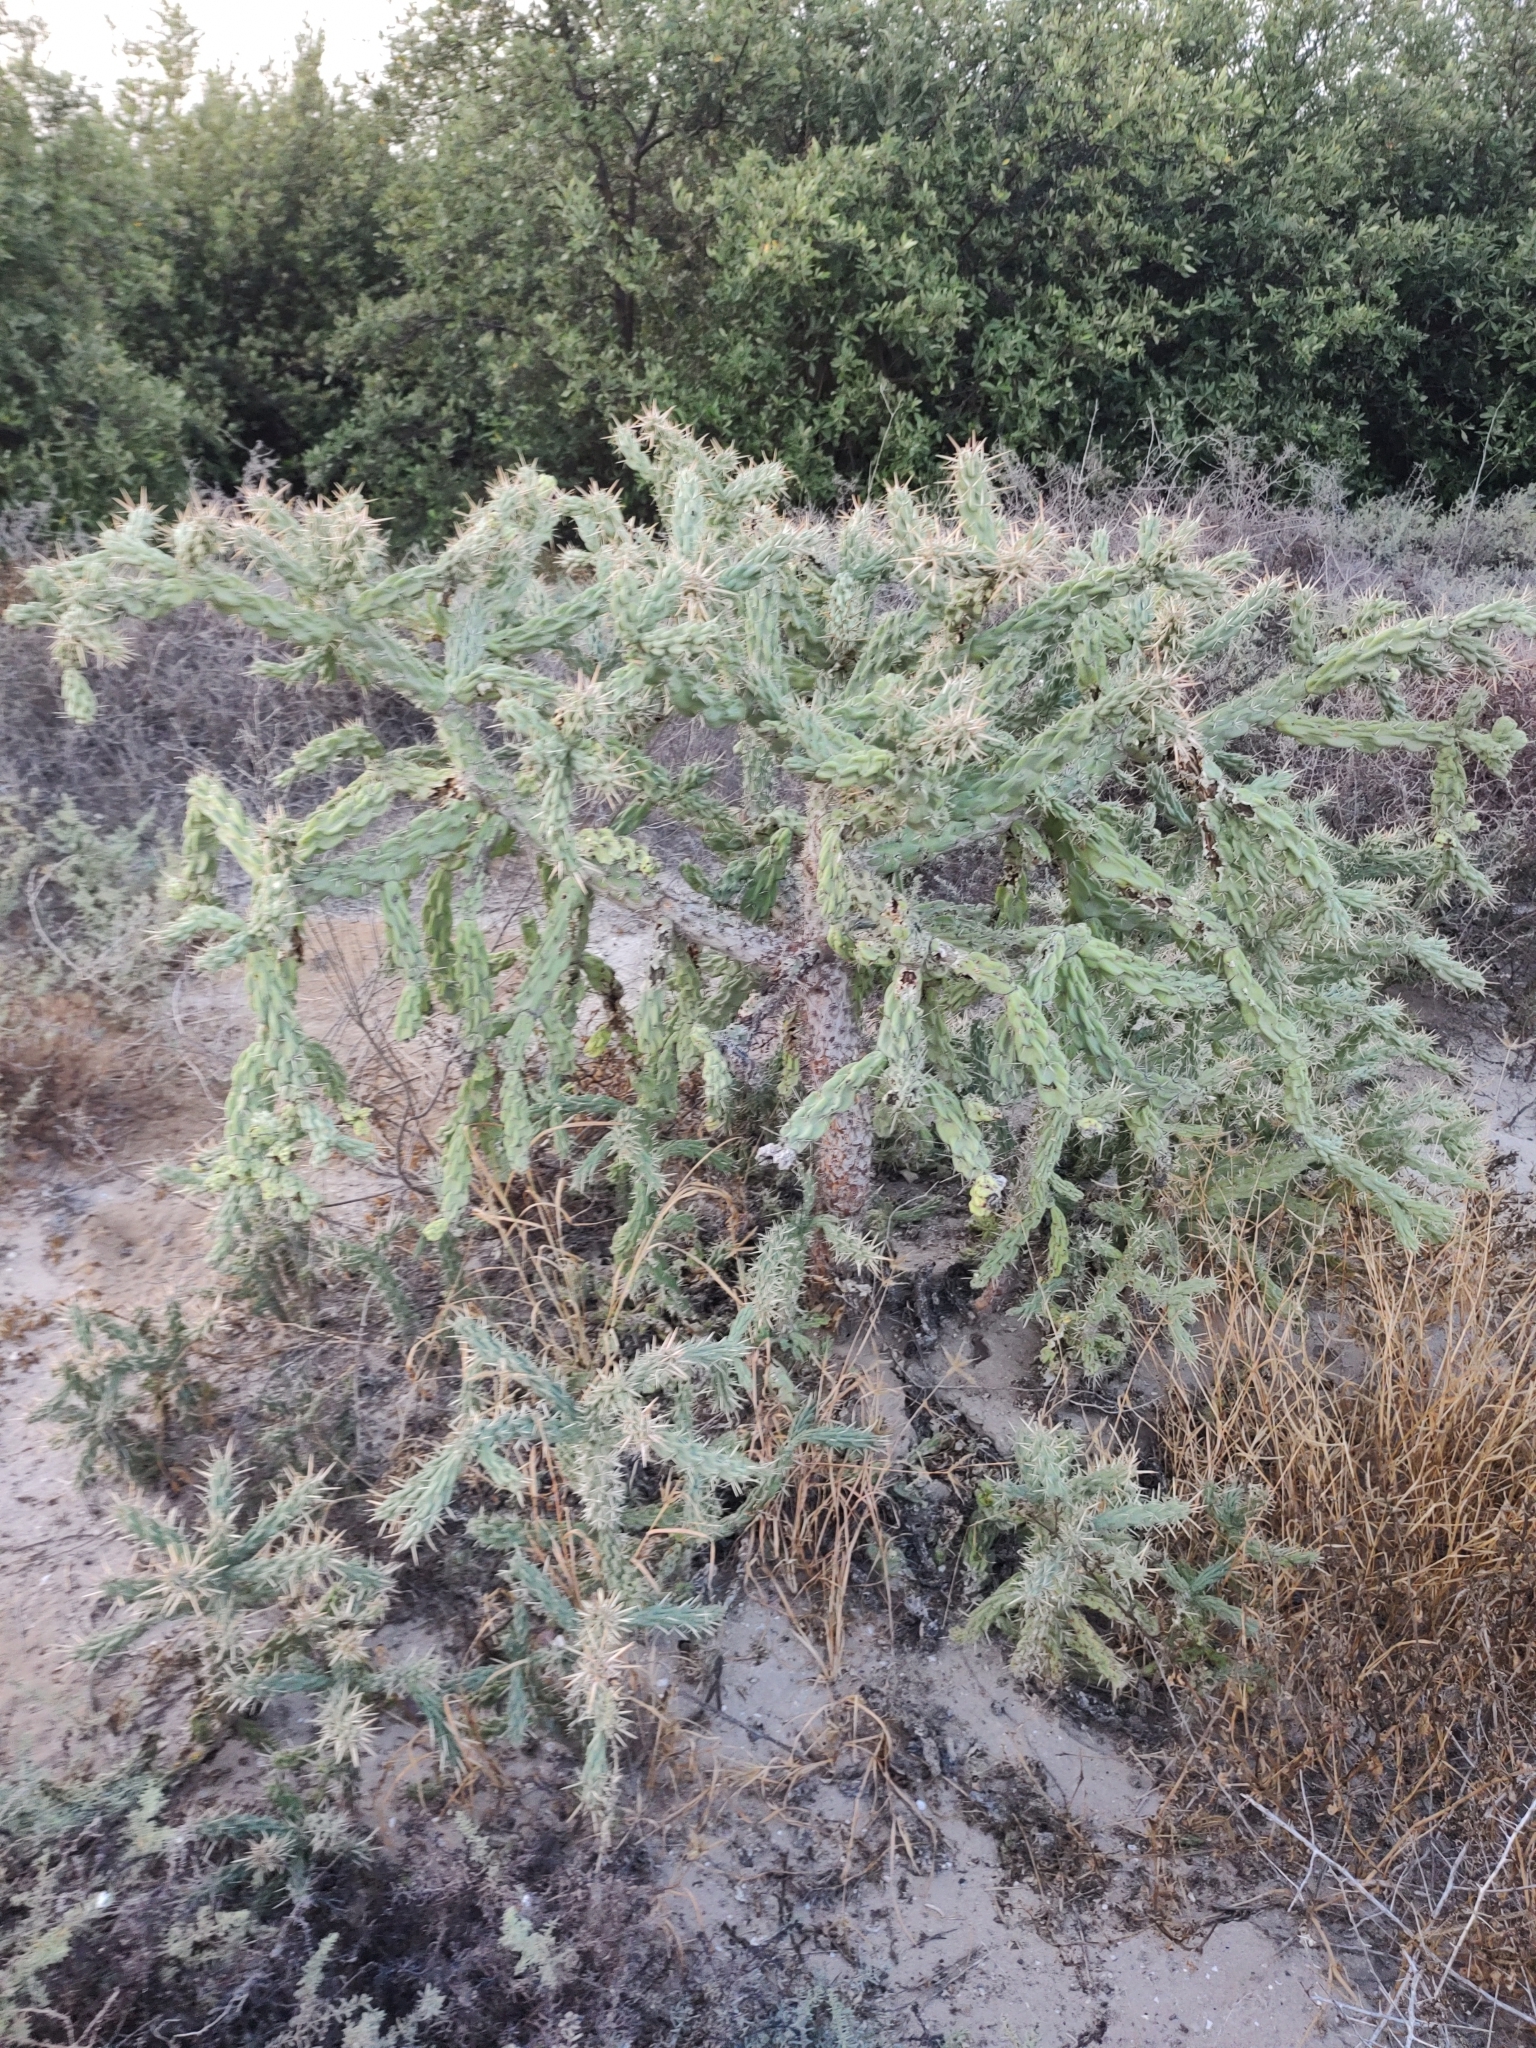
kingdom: Plantae
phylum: Tracheophyta
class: Magnoliopsida
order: Caryophyllales
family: Cactaceae
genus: Cylindropuntia
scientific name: Cylindropuntia cholla
